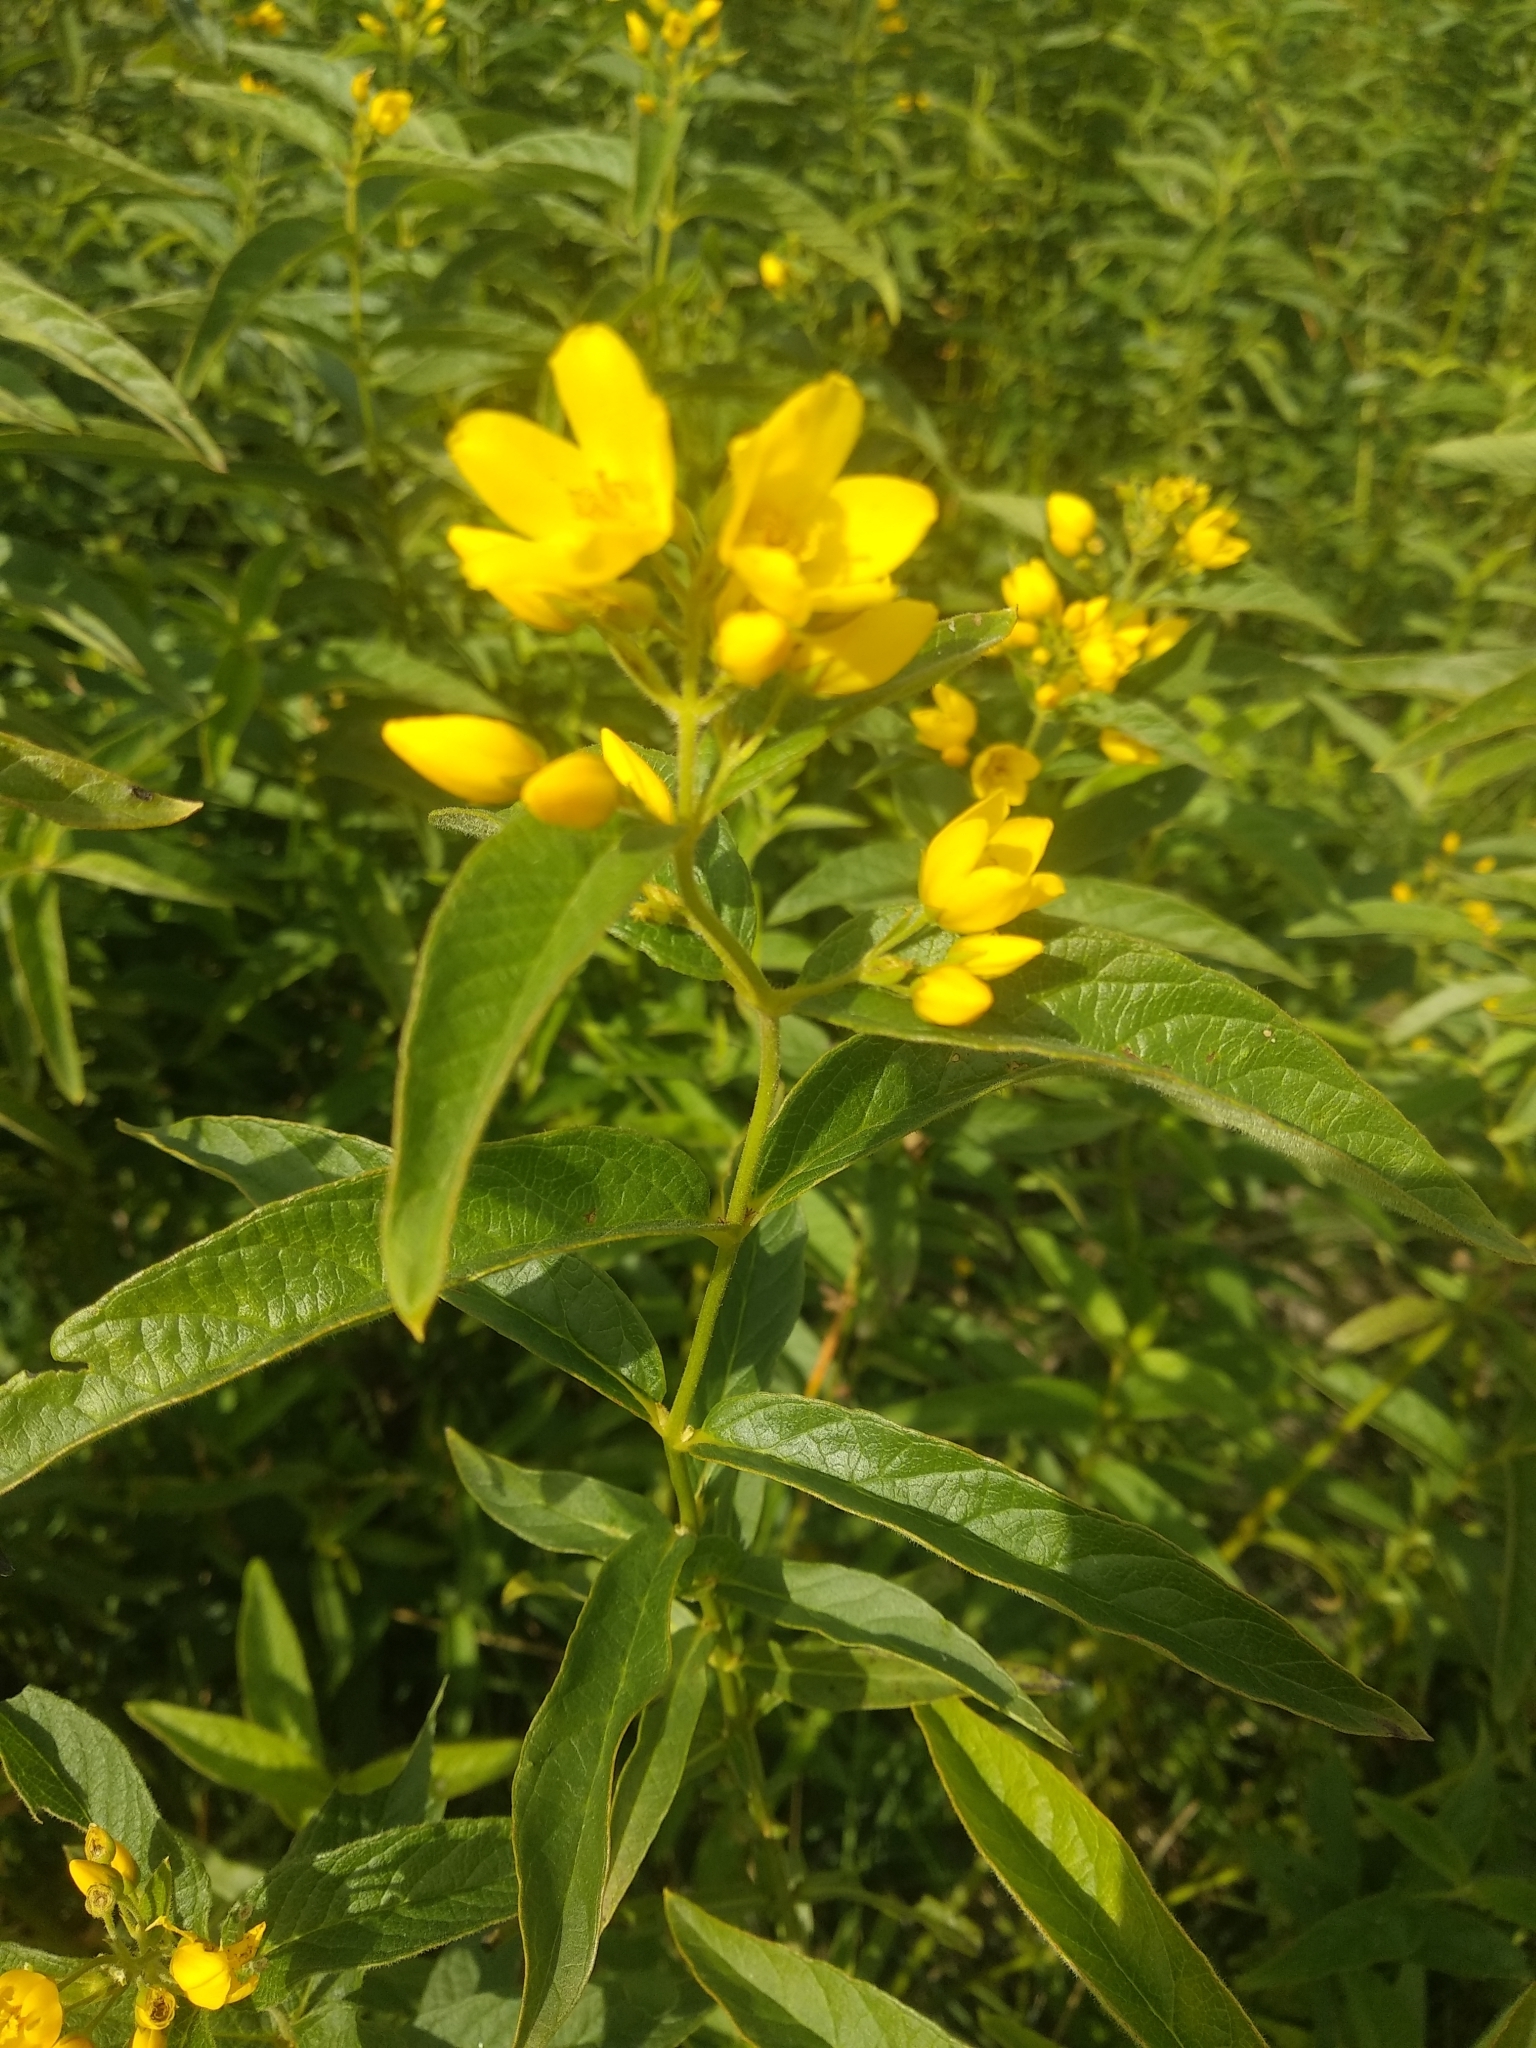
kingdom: Plantae
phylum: Tracheophyta
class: Magnoliopsida
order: Ericales
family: Primulaceae
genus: Lysimachia
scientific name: Lysimachia vulgaris
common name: Yellow loosestrife
